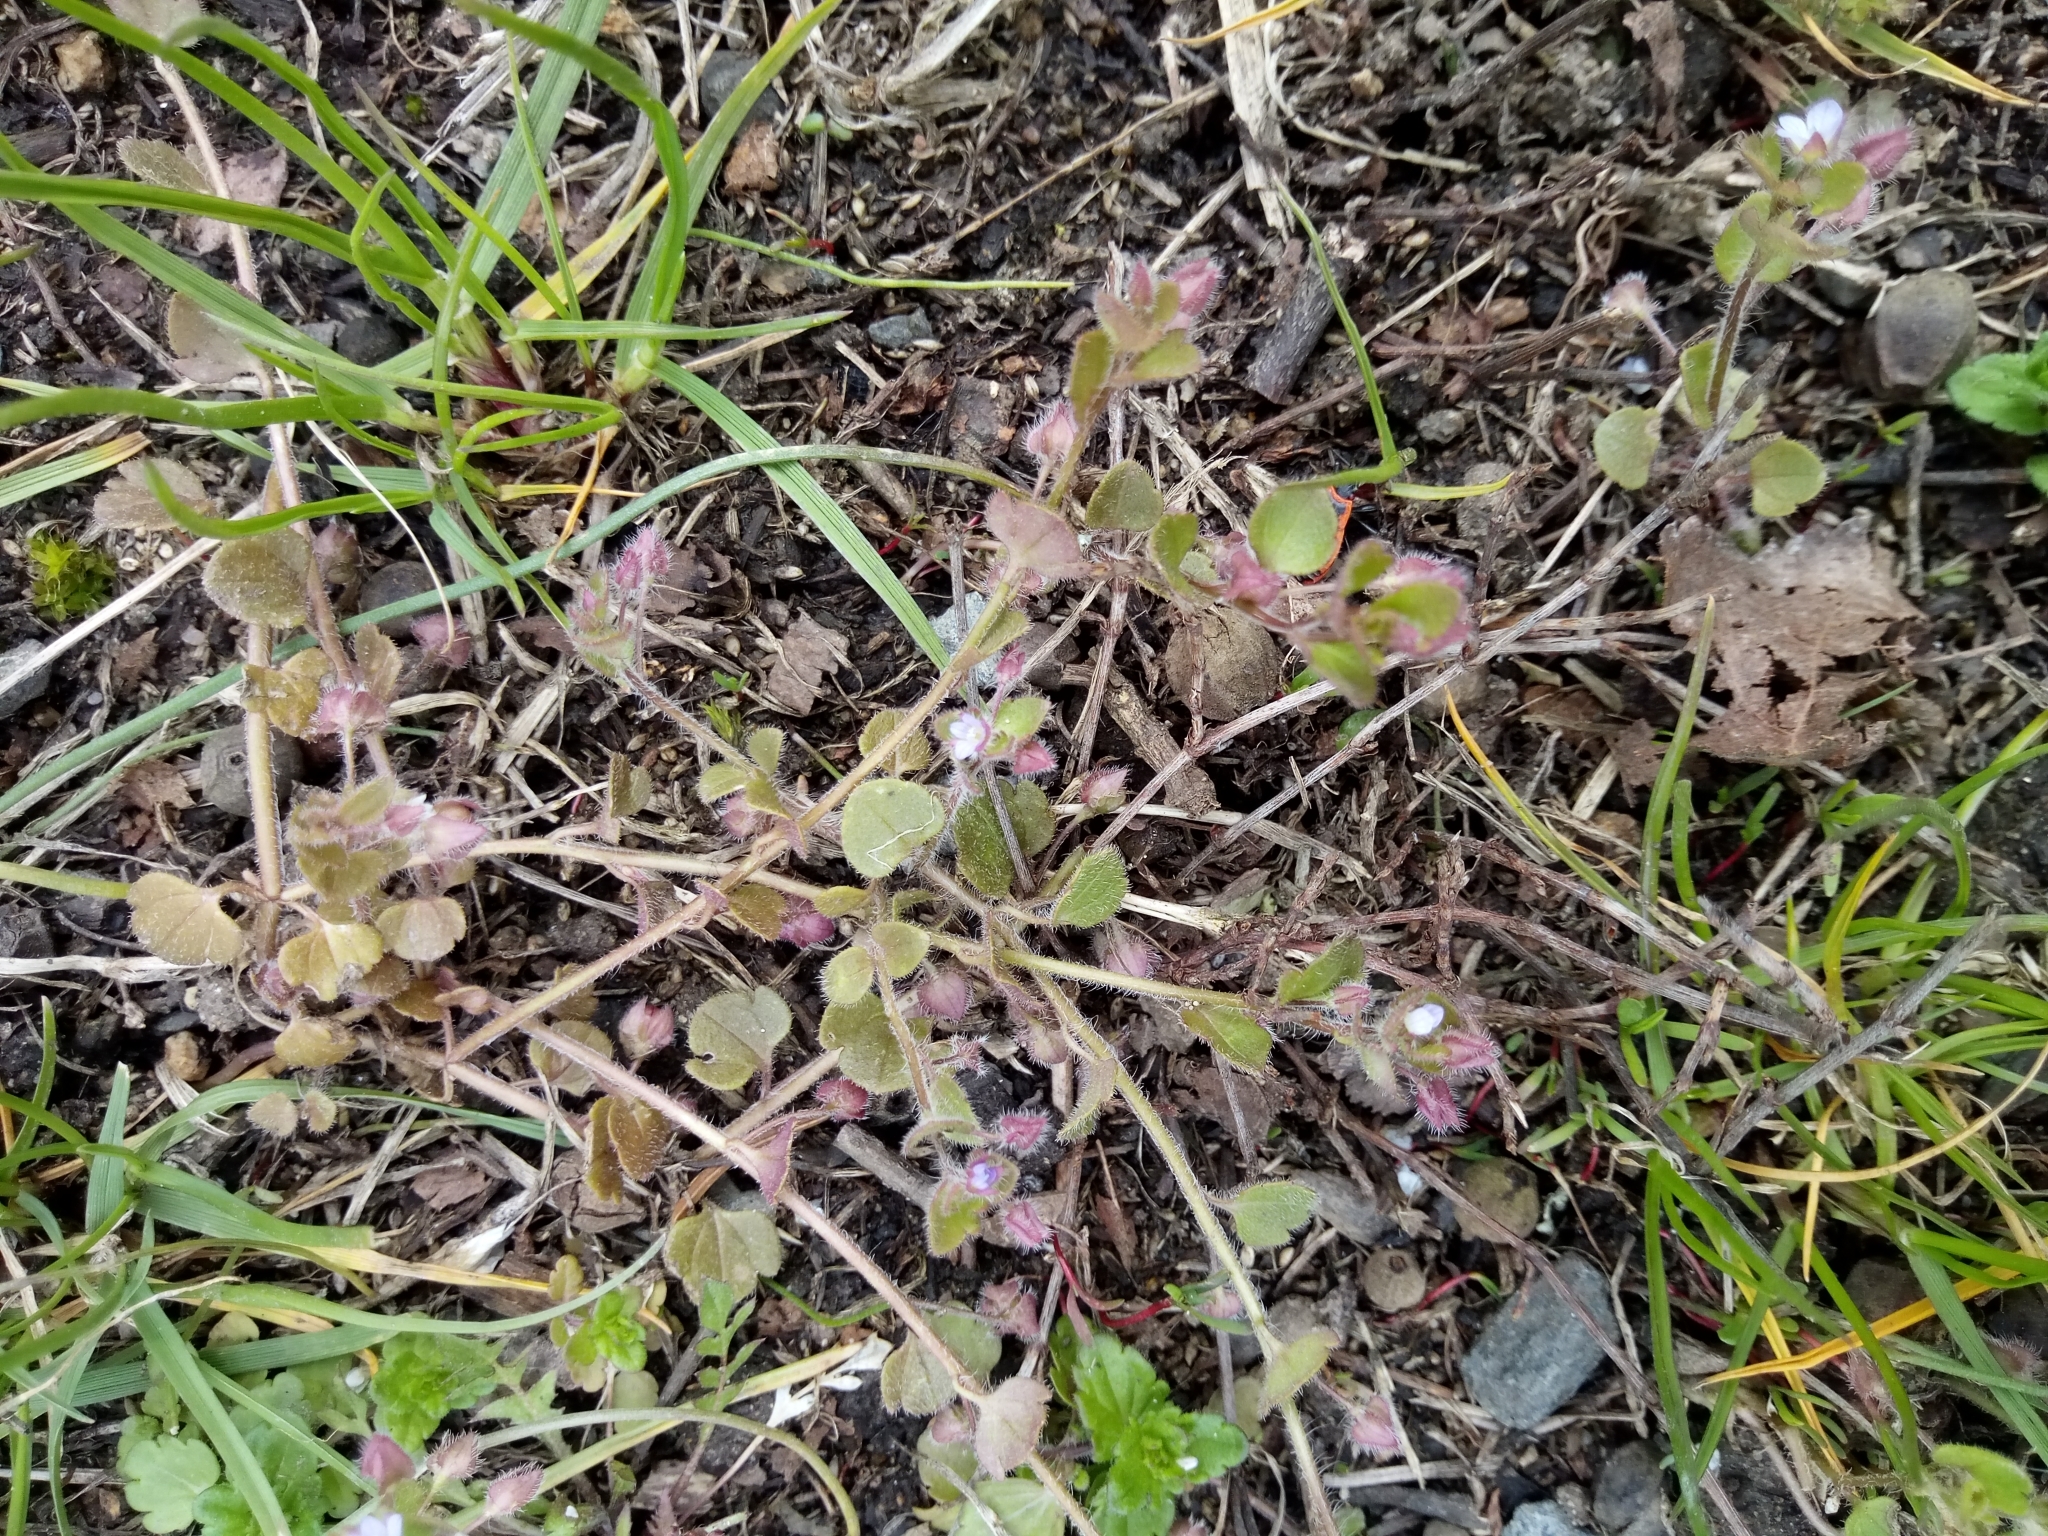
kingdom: Plantae
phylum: Tracheophyta
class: Magnoliopsida
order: Lamiales
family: Plantaginaceae
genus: Veronica
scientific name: Veronica sublobata
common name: False ivy-leaved speedwell
